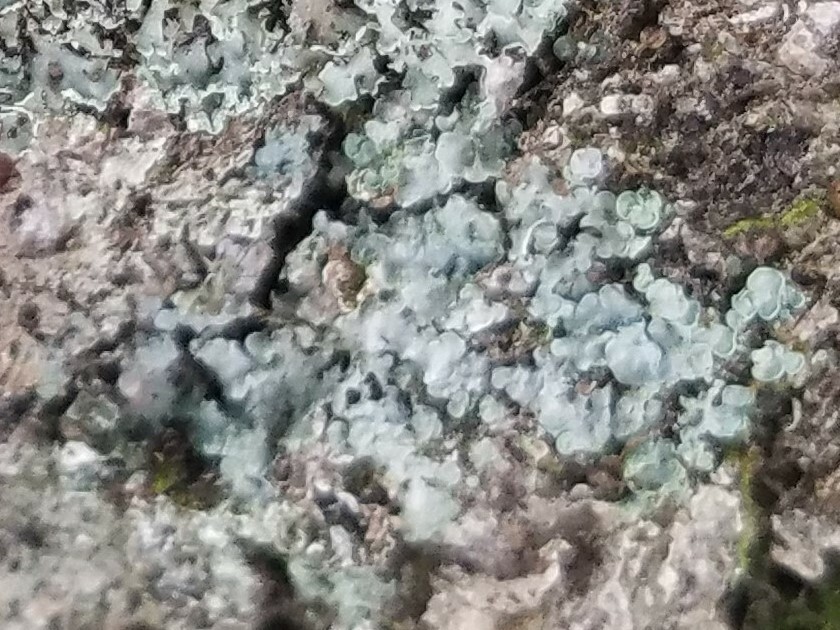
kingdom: Fungi
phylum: Ascomycota
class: Eurotiomycetes
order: Verrucariales
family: Verrucariaceae
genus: Normandina
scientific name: Normandina pulchella
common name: Elf ears lichen
